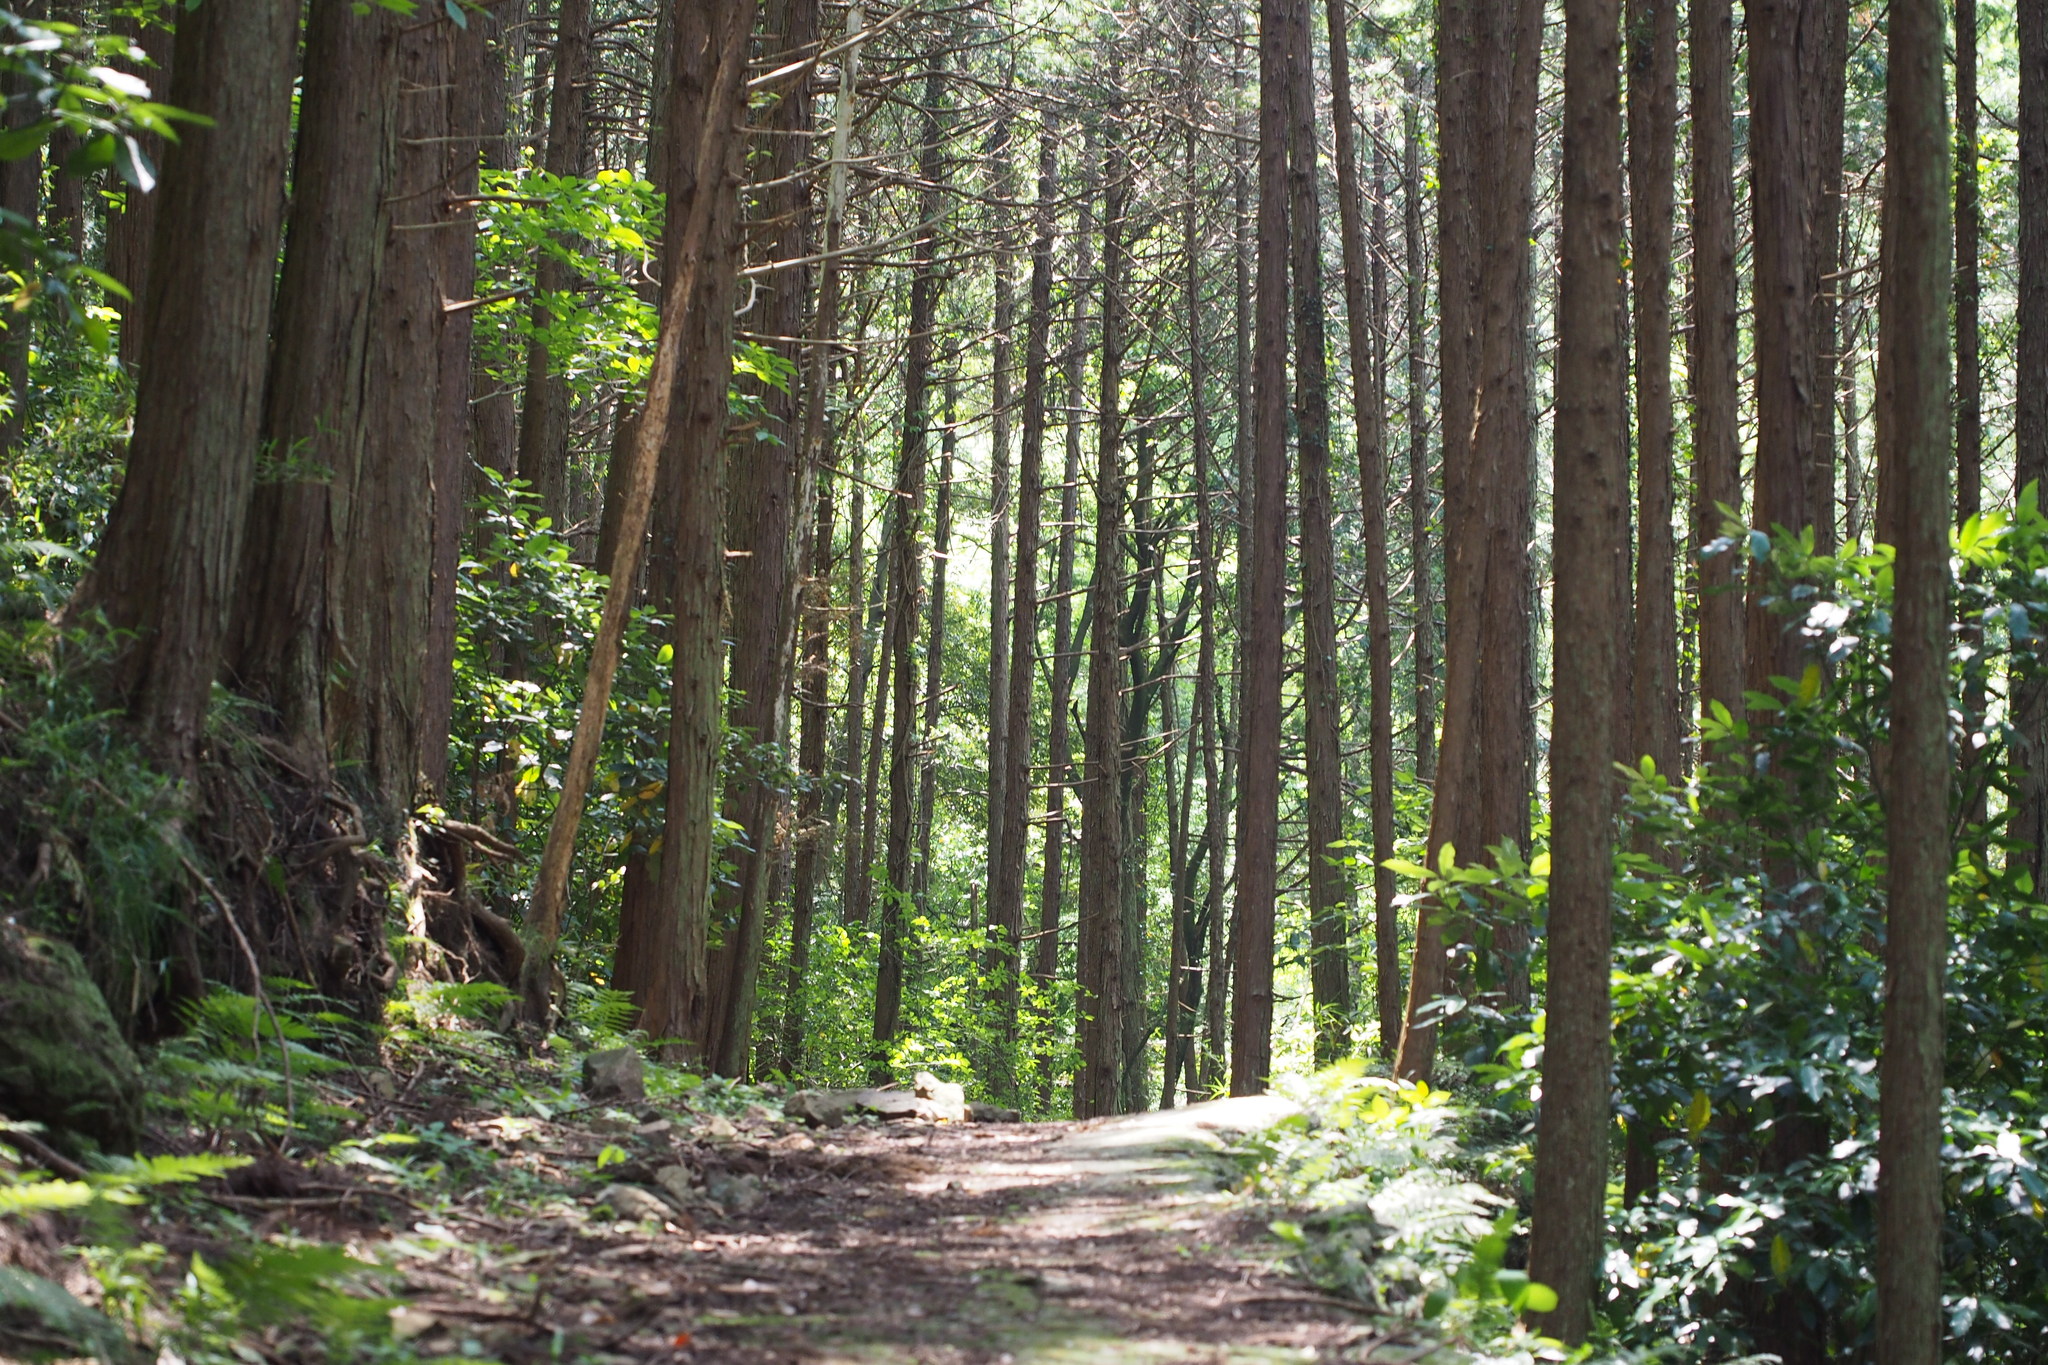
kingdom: Plantae
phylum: Tracheophyta
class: Pinopsida
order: Pinales
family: Cupressaceae
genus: Chamaecyparis
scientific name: Chamaecyparis obtusa
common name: Hinoki false cypress
